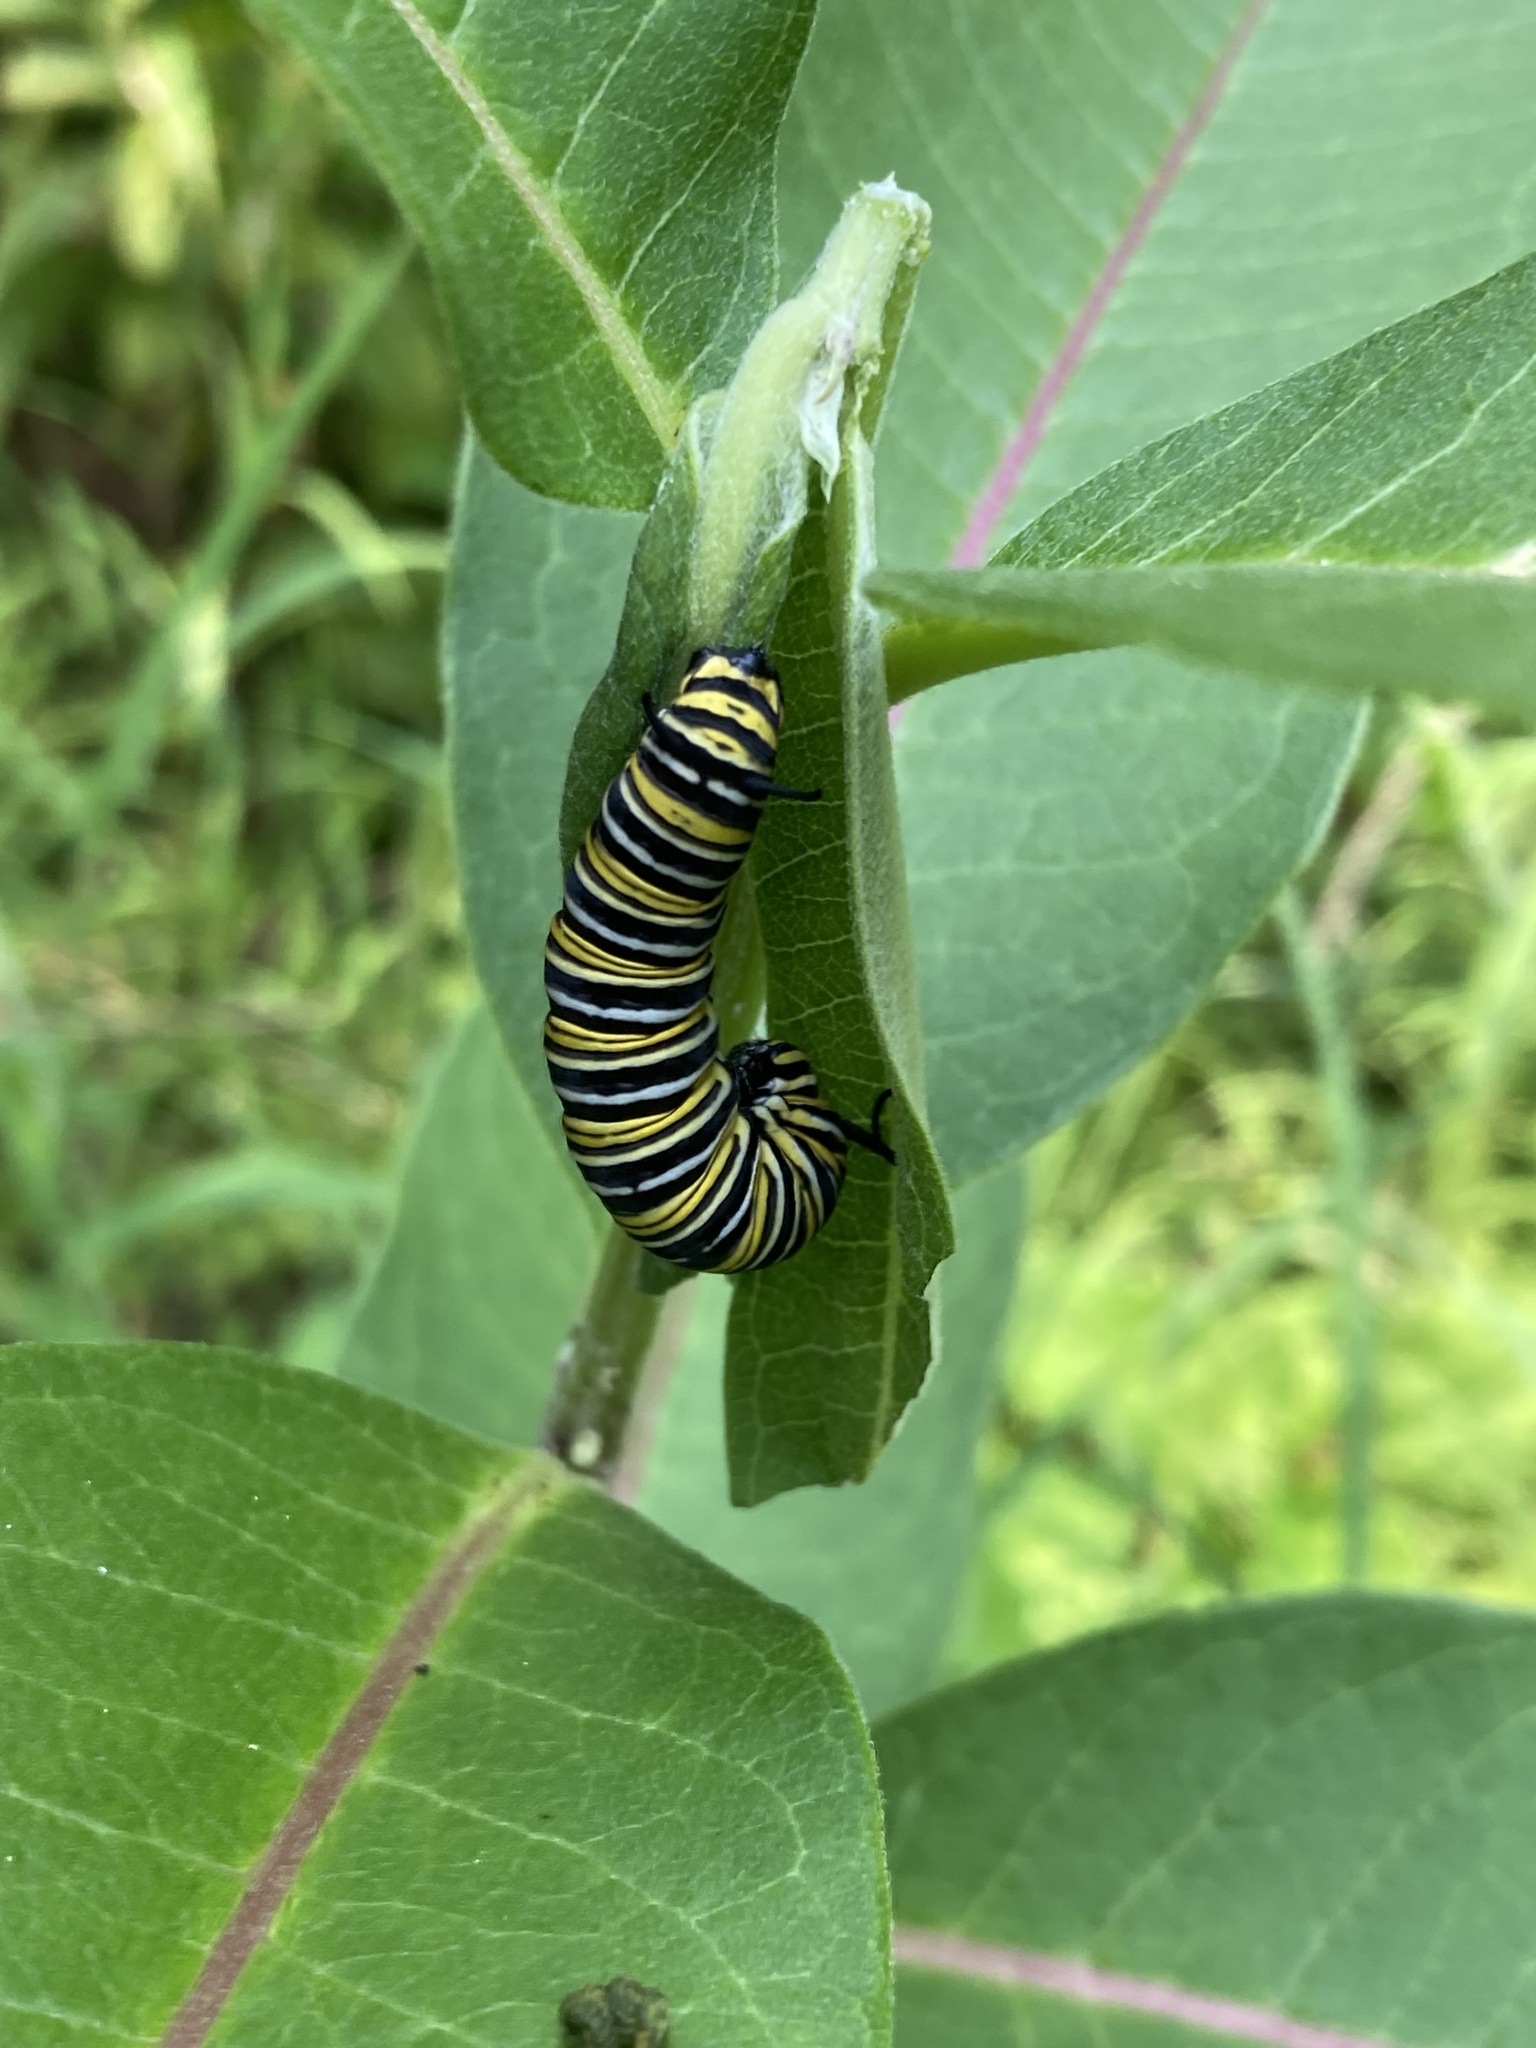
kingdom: Animalia
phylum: Arthropoda
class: Insecta
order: Lepidoptera
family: Nymphalidae
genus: Danaus
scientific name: Danaus plexippus
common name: Monarch
